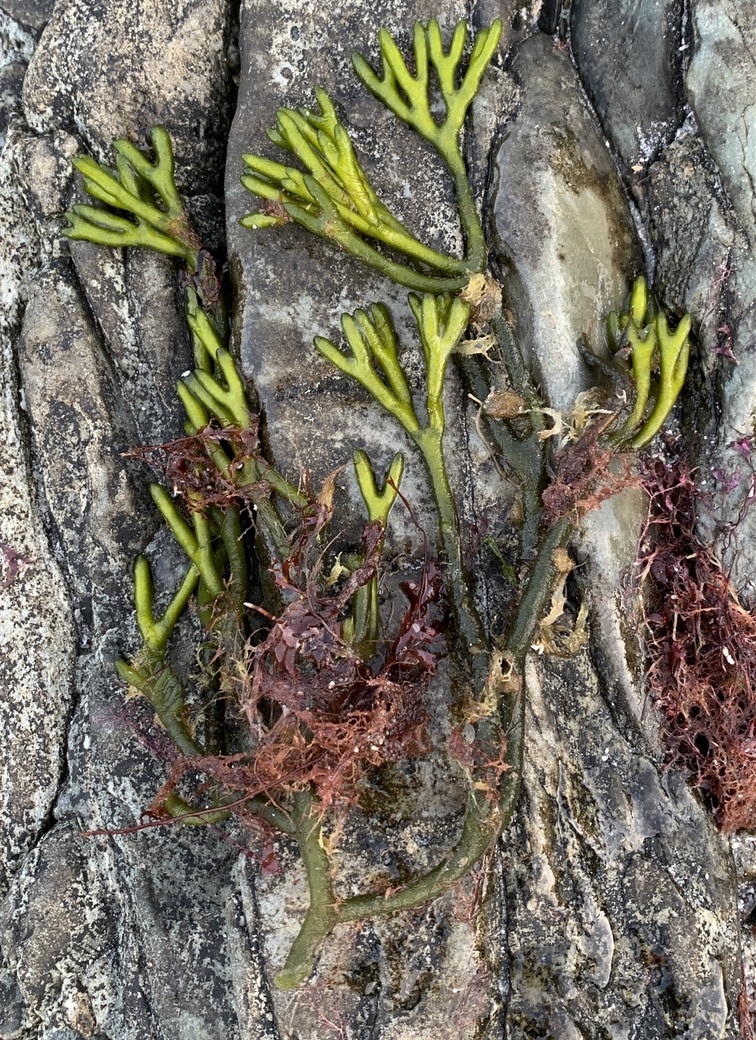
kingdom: Plantae
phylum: Chlorophyta
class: Ulvophyceae
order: Bryopsidales
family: Codiaceae
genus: Codium
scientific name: Codium fragile
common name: Dead man's fingers
